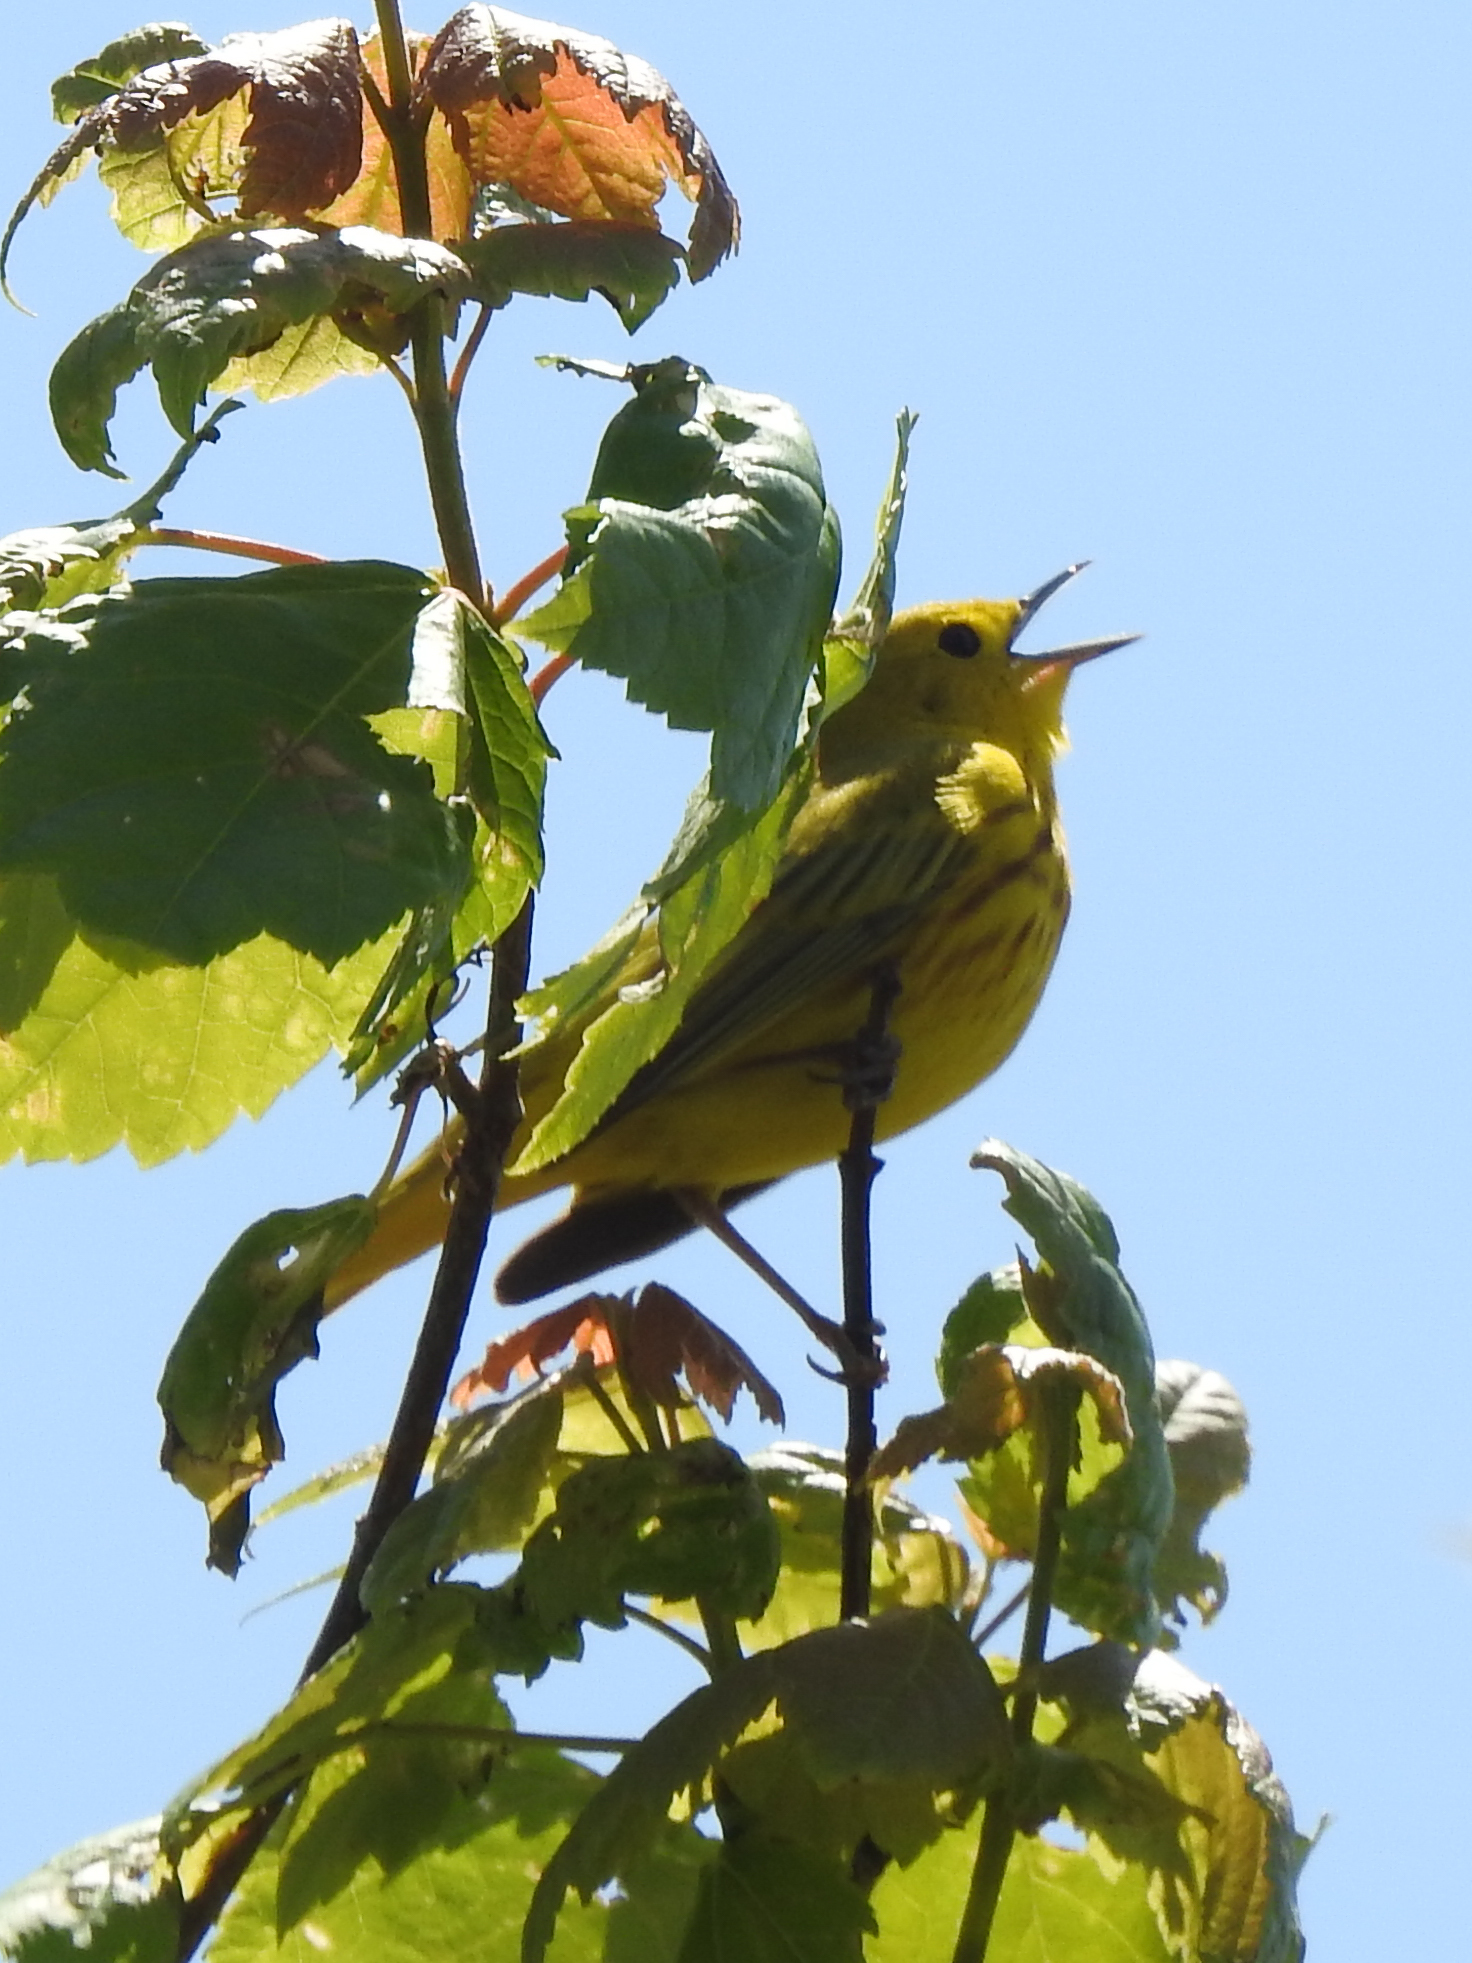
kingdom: Animalia
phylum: Chordata
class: Aves
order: Passeriformes
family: Parulidae
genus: Setophaga
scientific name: Setophaga petechia
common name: Yellow warbler
